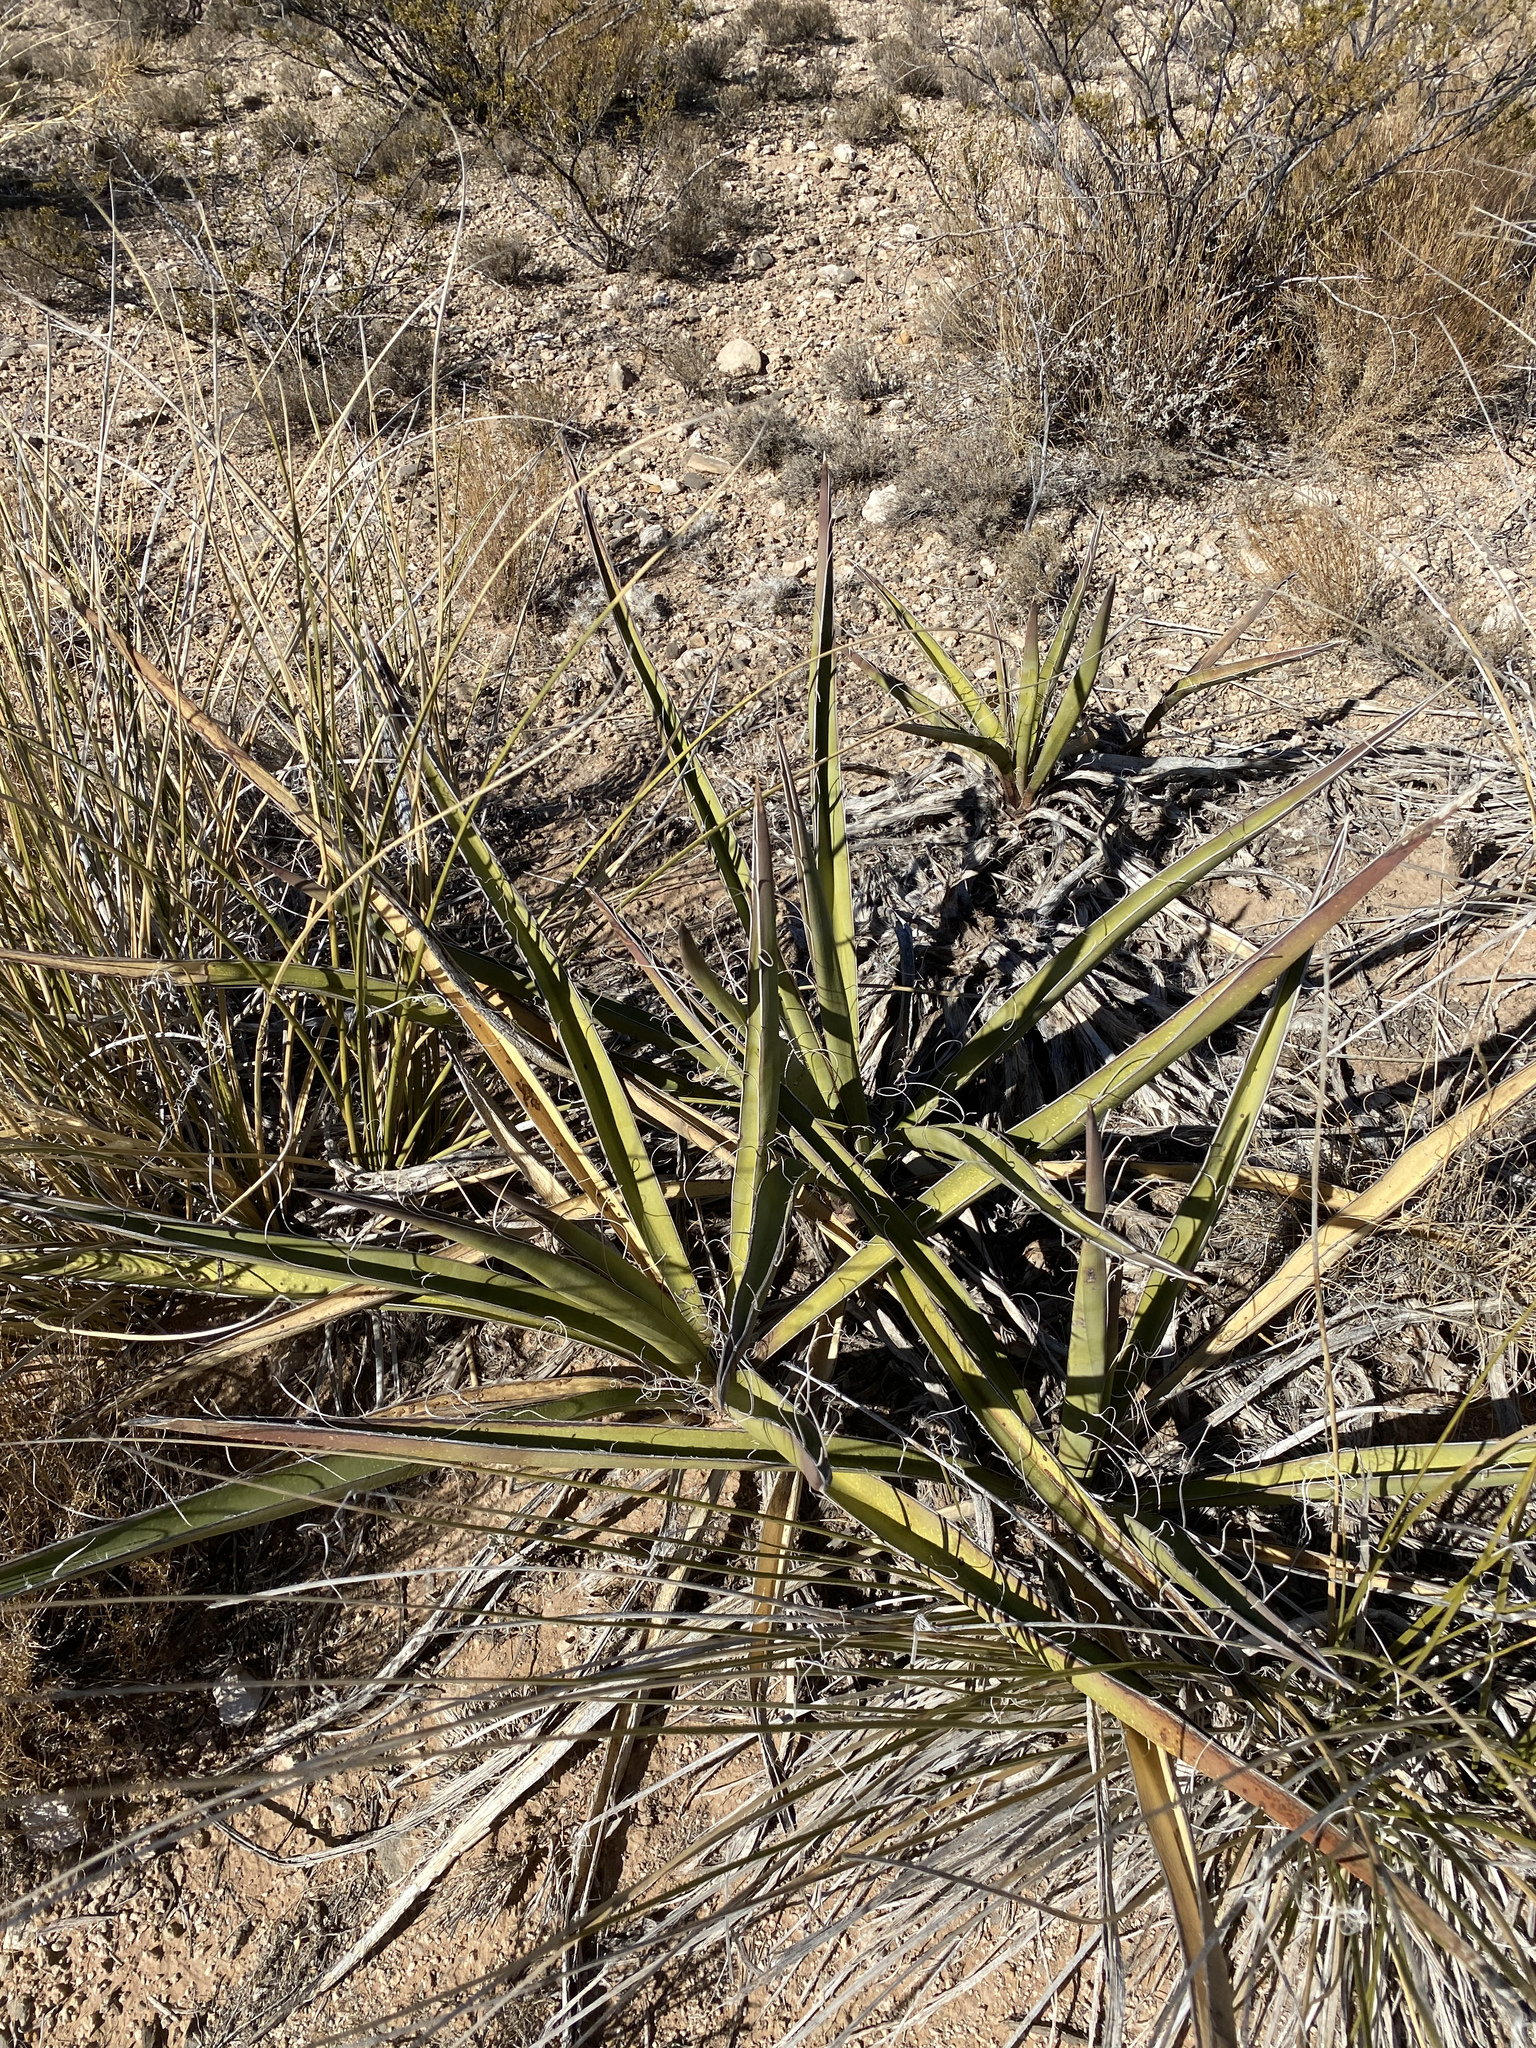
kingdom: Plantae
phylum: Tracheophyta
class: Liliopsida
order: Asparagales
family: Asparagaceae
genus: Yucca
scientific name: Yucca baccata
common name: Banana yucca
